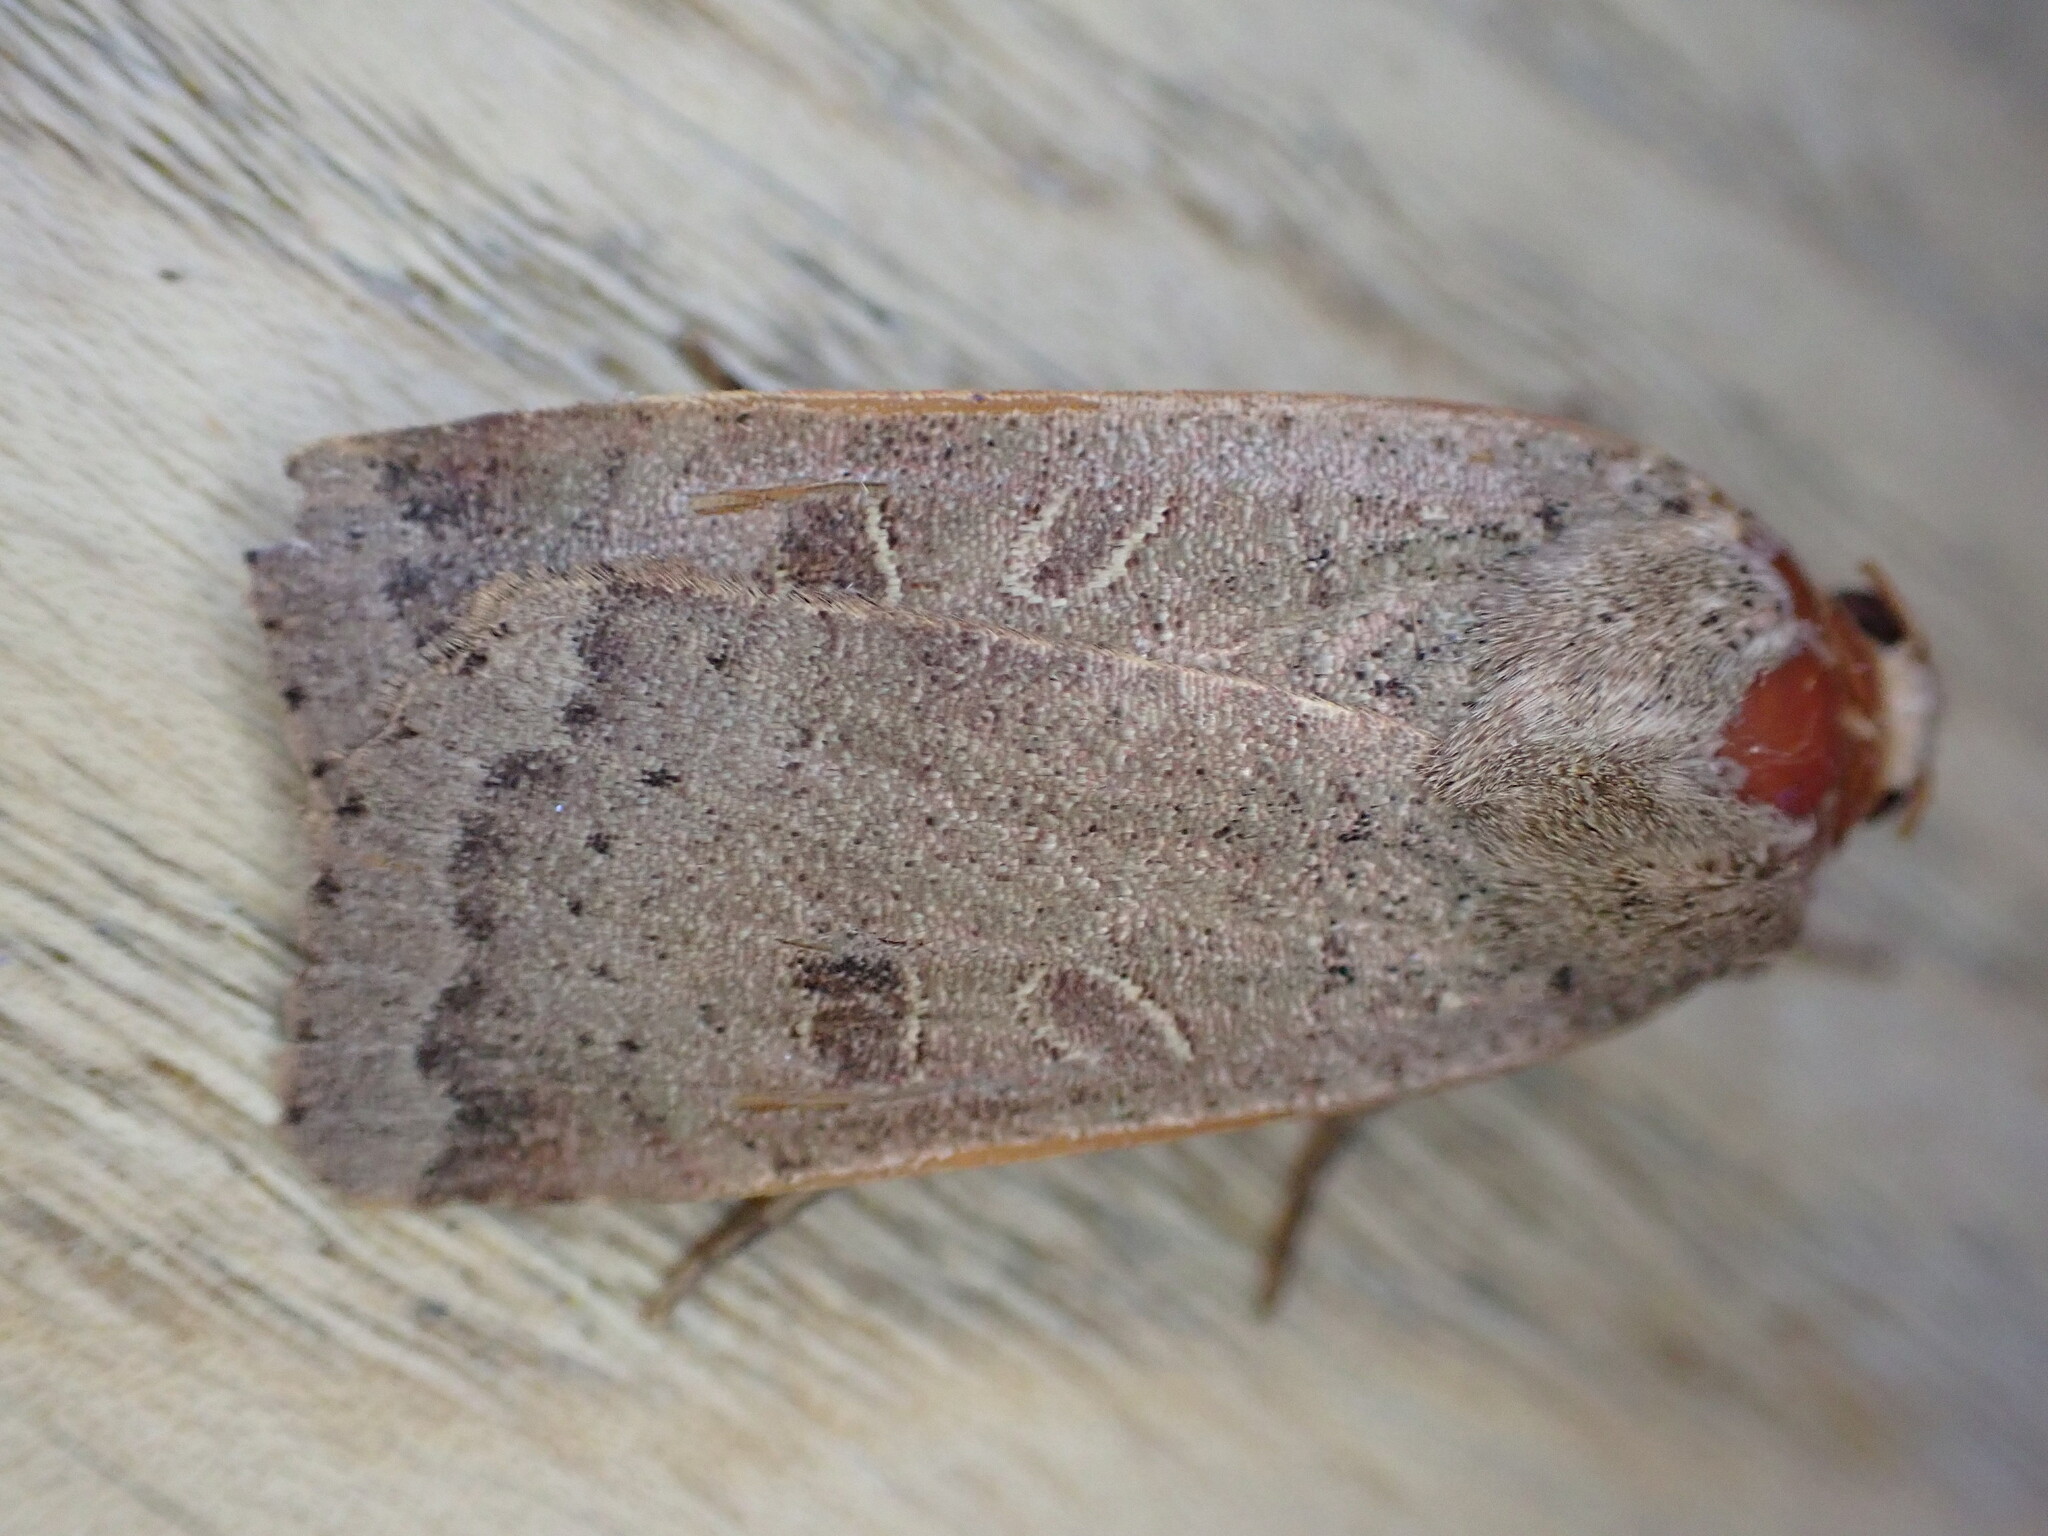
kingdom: Animalia
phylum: Arthropoda
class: Insecta
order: Lepidoptera
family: Noctuidae
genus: Noctua
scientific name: Noctua comes
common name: Lesser yellow underwing
